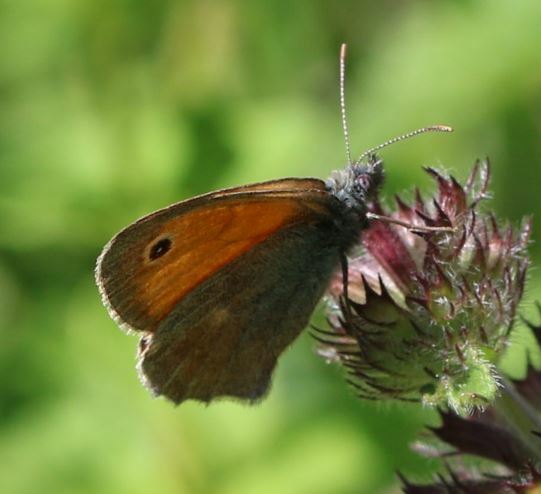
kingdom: Animalia
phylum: Arthropoda
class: Insecta
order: Lepidoptera
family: Nymphalidae
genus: Coenonympha
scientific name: Coenonympha pamphilus
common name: Small heath
